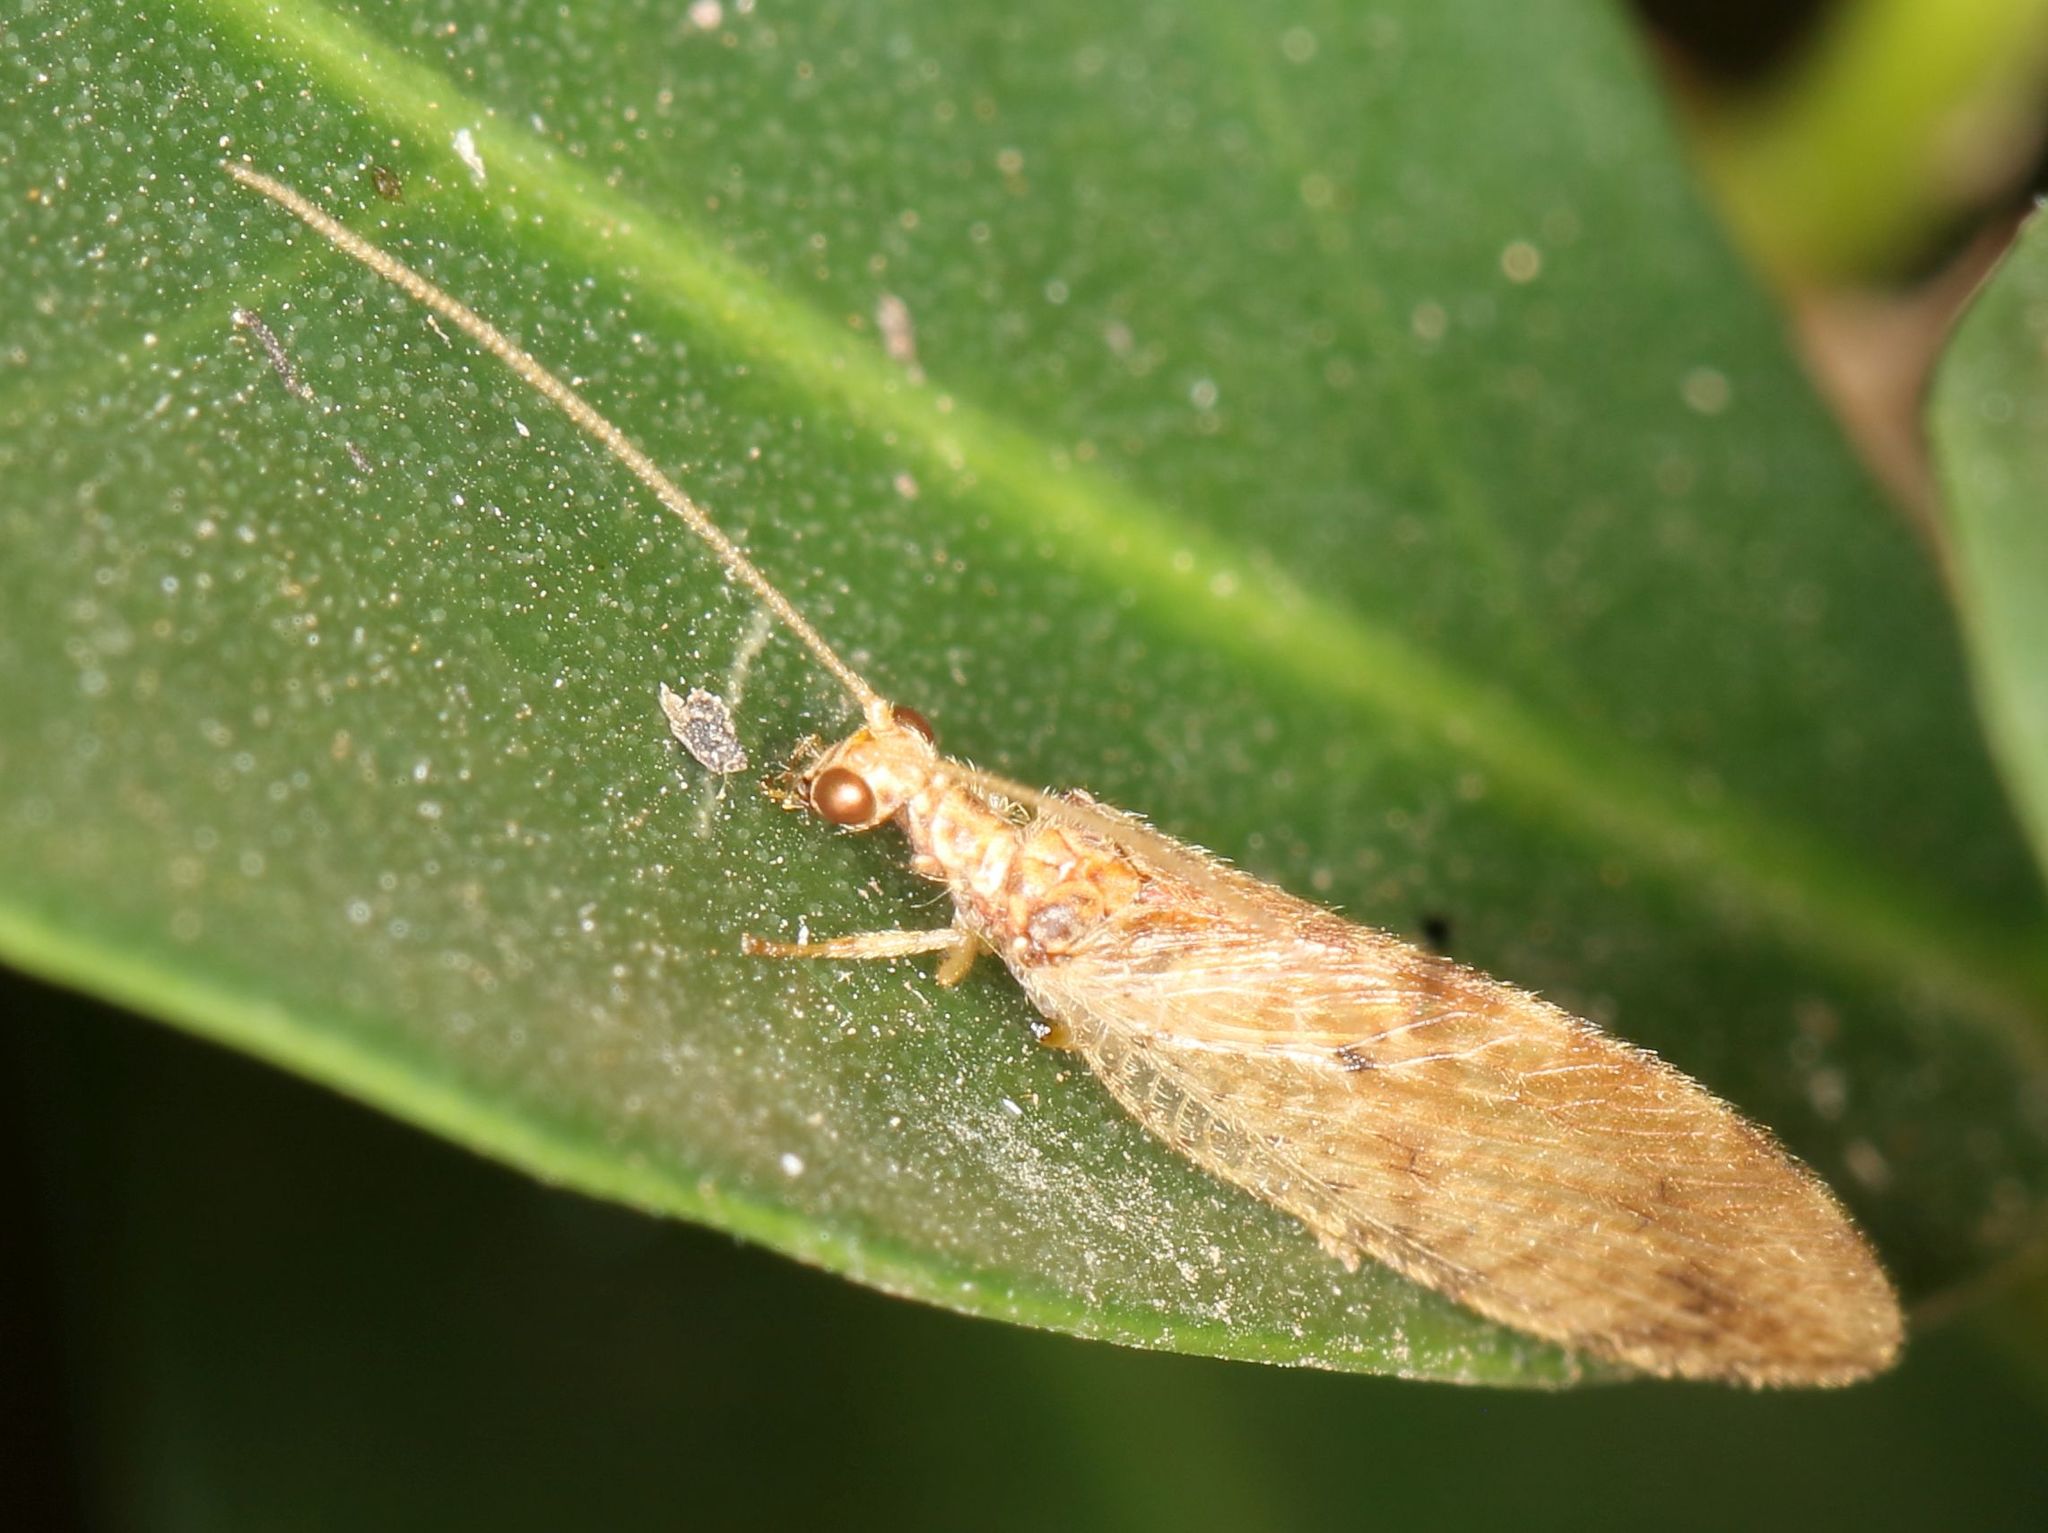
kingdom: Animalia
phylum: Arthropoda
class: Insecta
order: Neuroptera
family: Hemerobiidae
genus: Micromus
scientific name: Micromus oblongus
